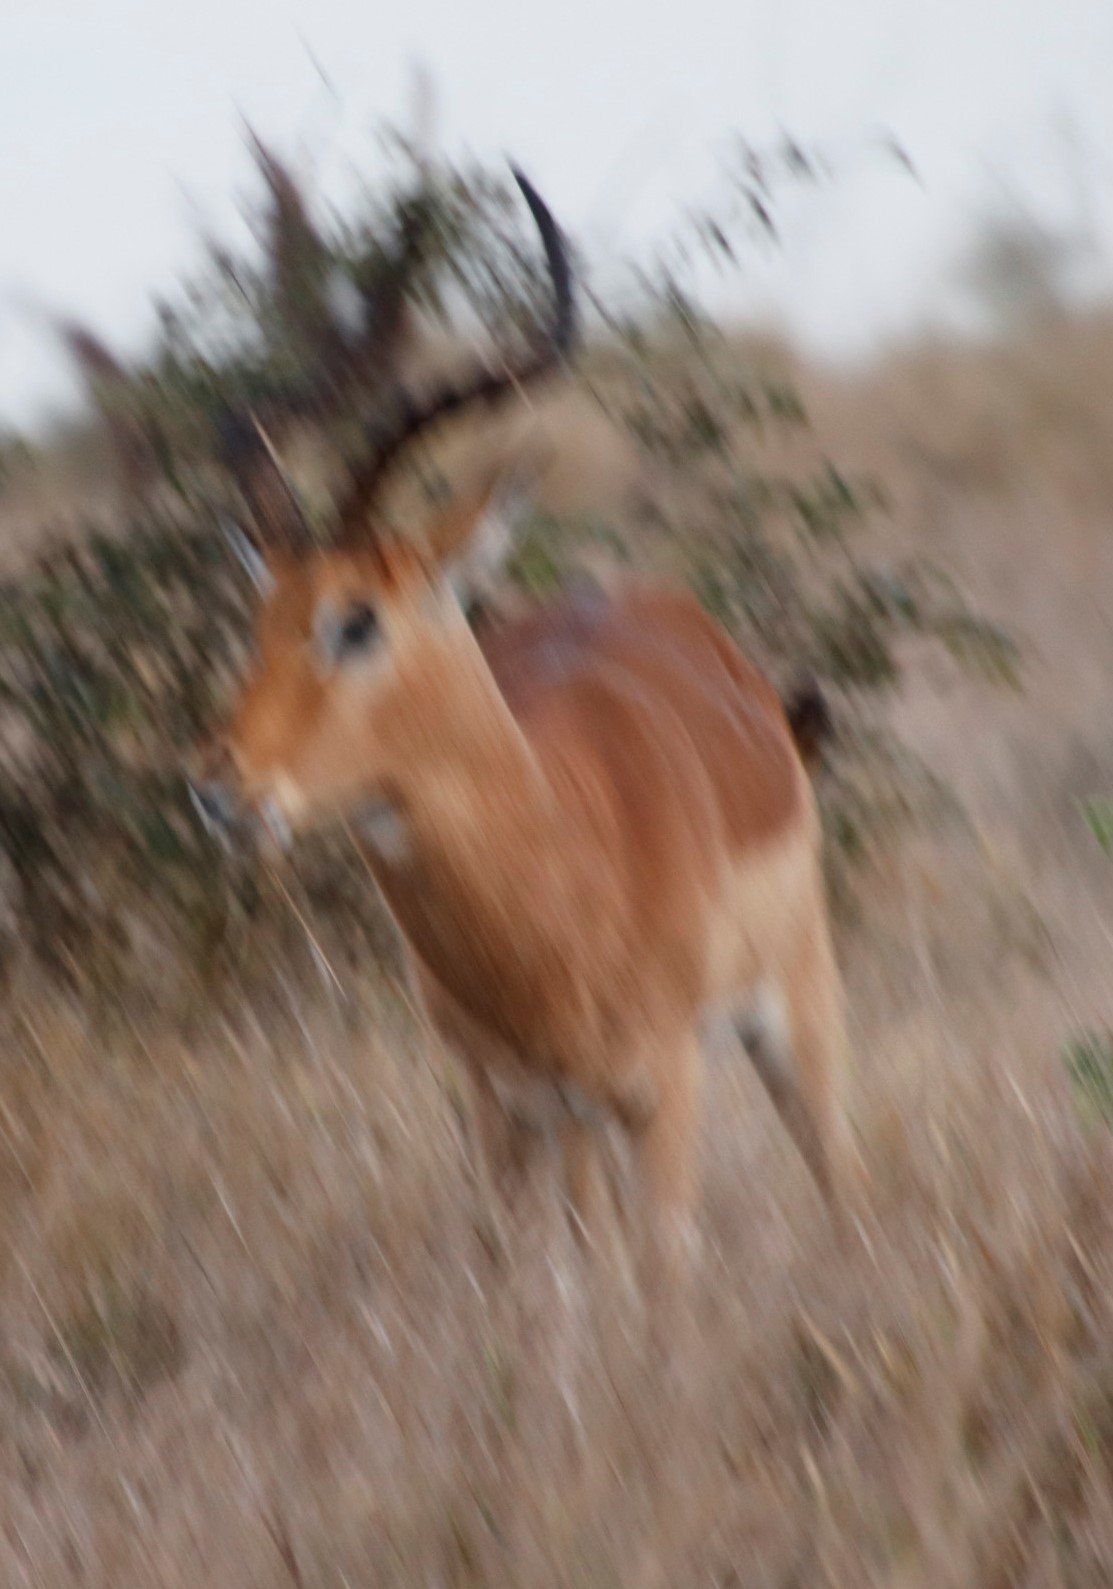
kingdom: Animalia
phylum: Chordata
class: Mammalia
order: Artiodactyla
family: Bovidae
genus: Aepyceros
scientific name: Aepyceros melampus
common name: Impala
